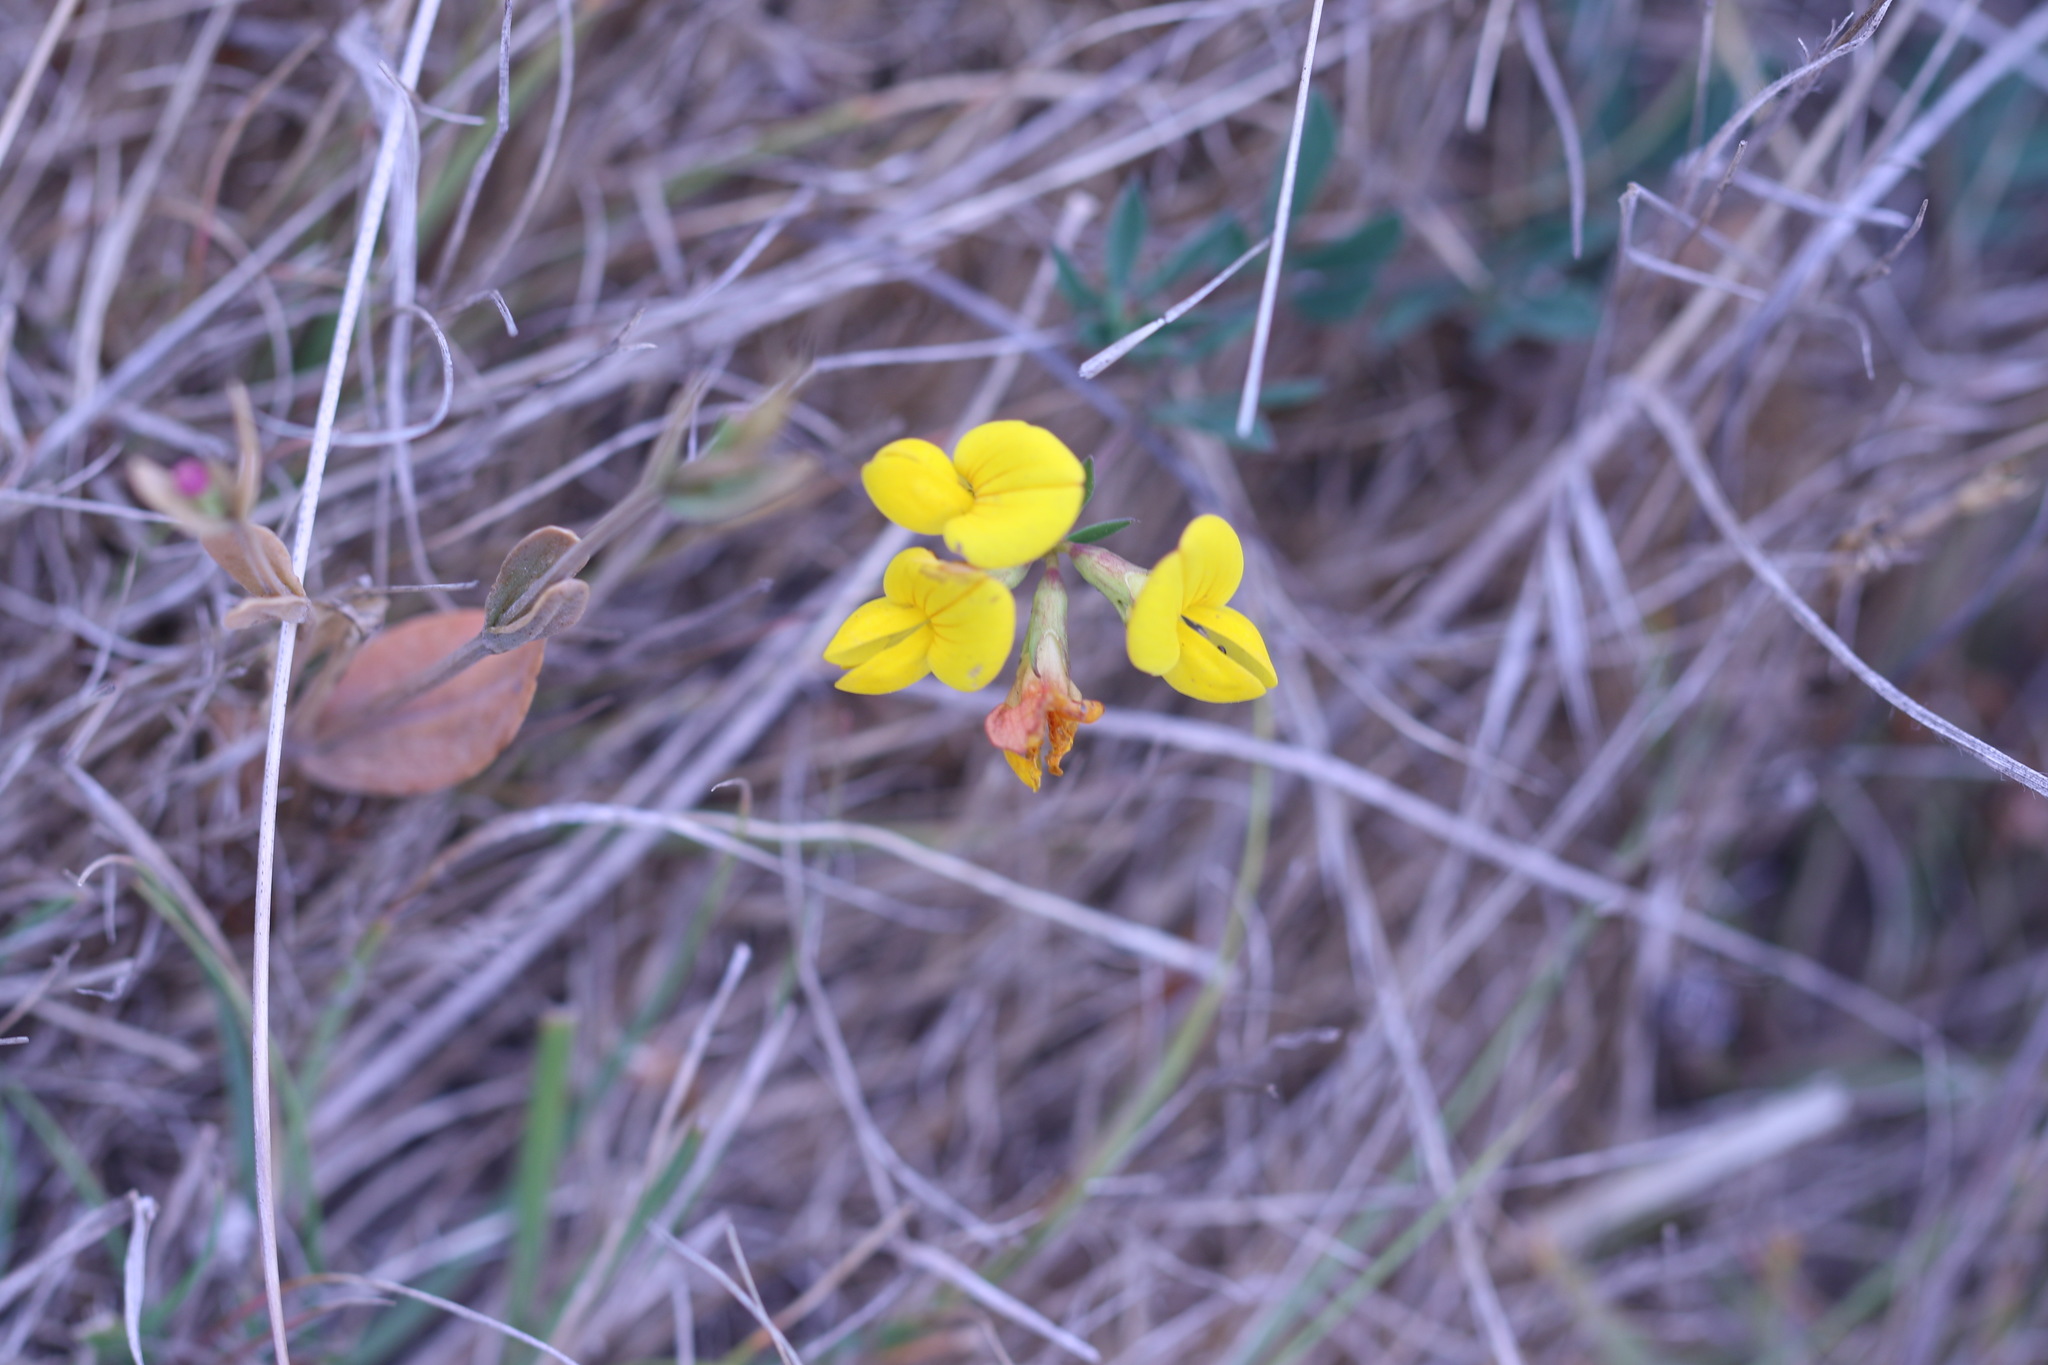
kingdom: Plantae
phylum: Tracheophyta
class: Magnoliopsida
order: Fabales
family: Fabaceae
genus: Lotus
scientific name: Lotus corniculatus
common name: Common bird's-foot-trefoil
